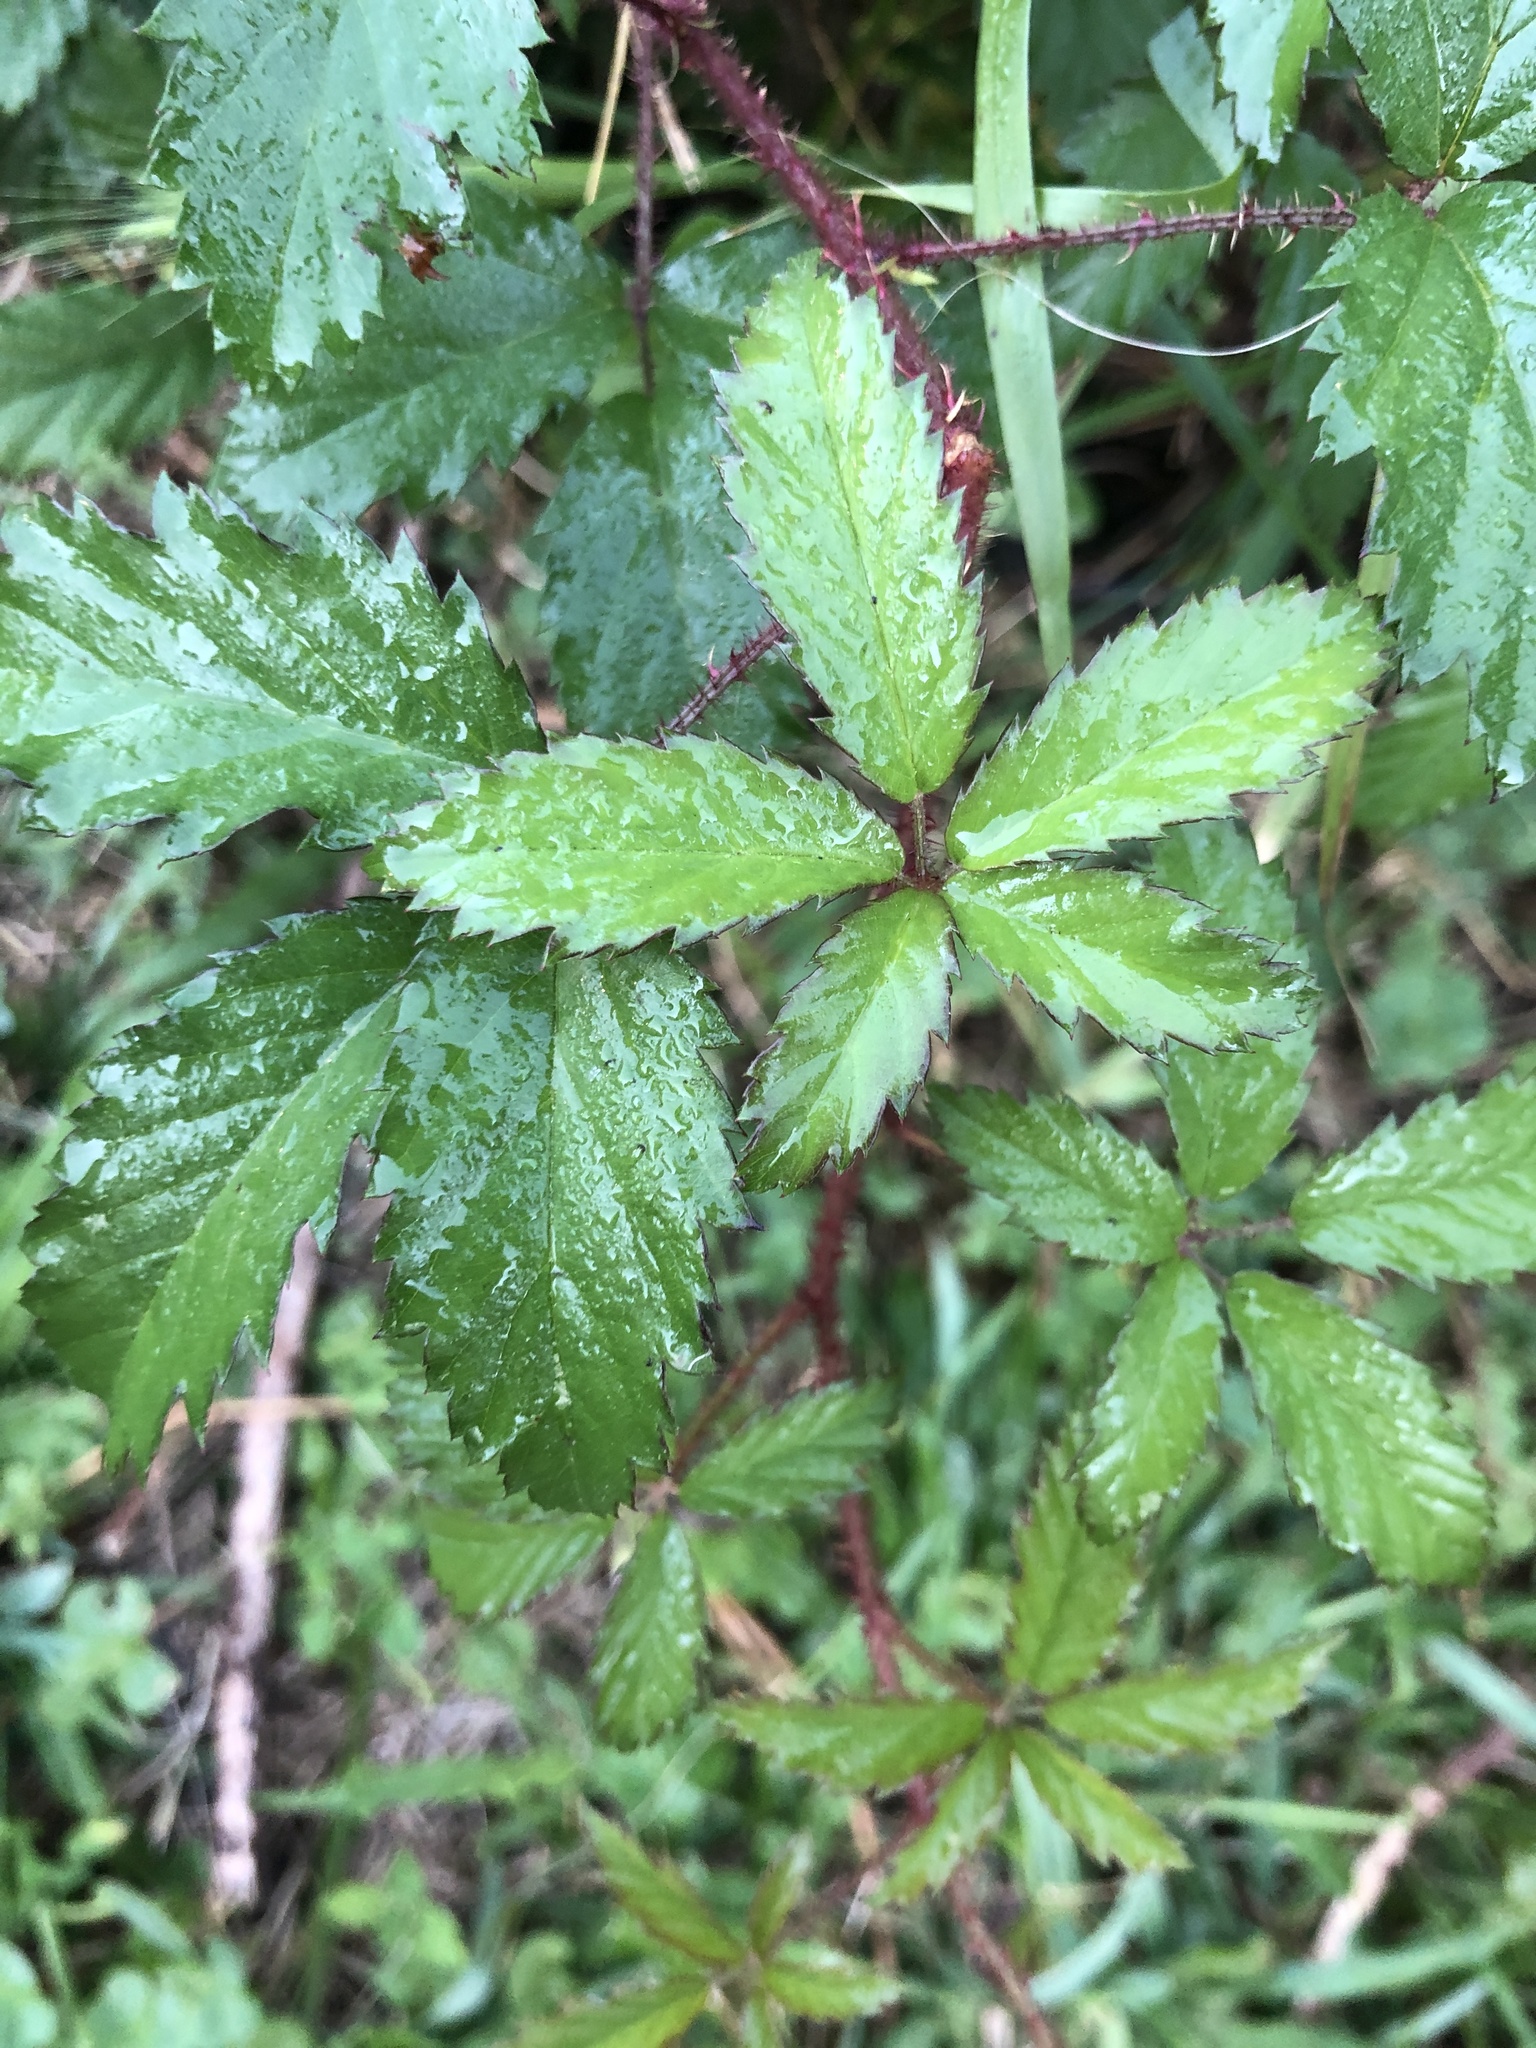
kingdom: Plantae
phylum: Tracheophyta
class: Magnoliopsida
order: Rosales
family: Rosaceae
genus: Rubus
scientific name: Rubus trivialis
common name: Southern dewberry
